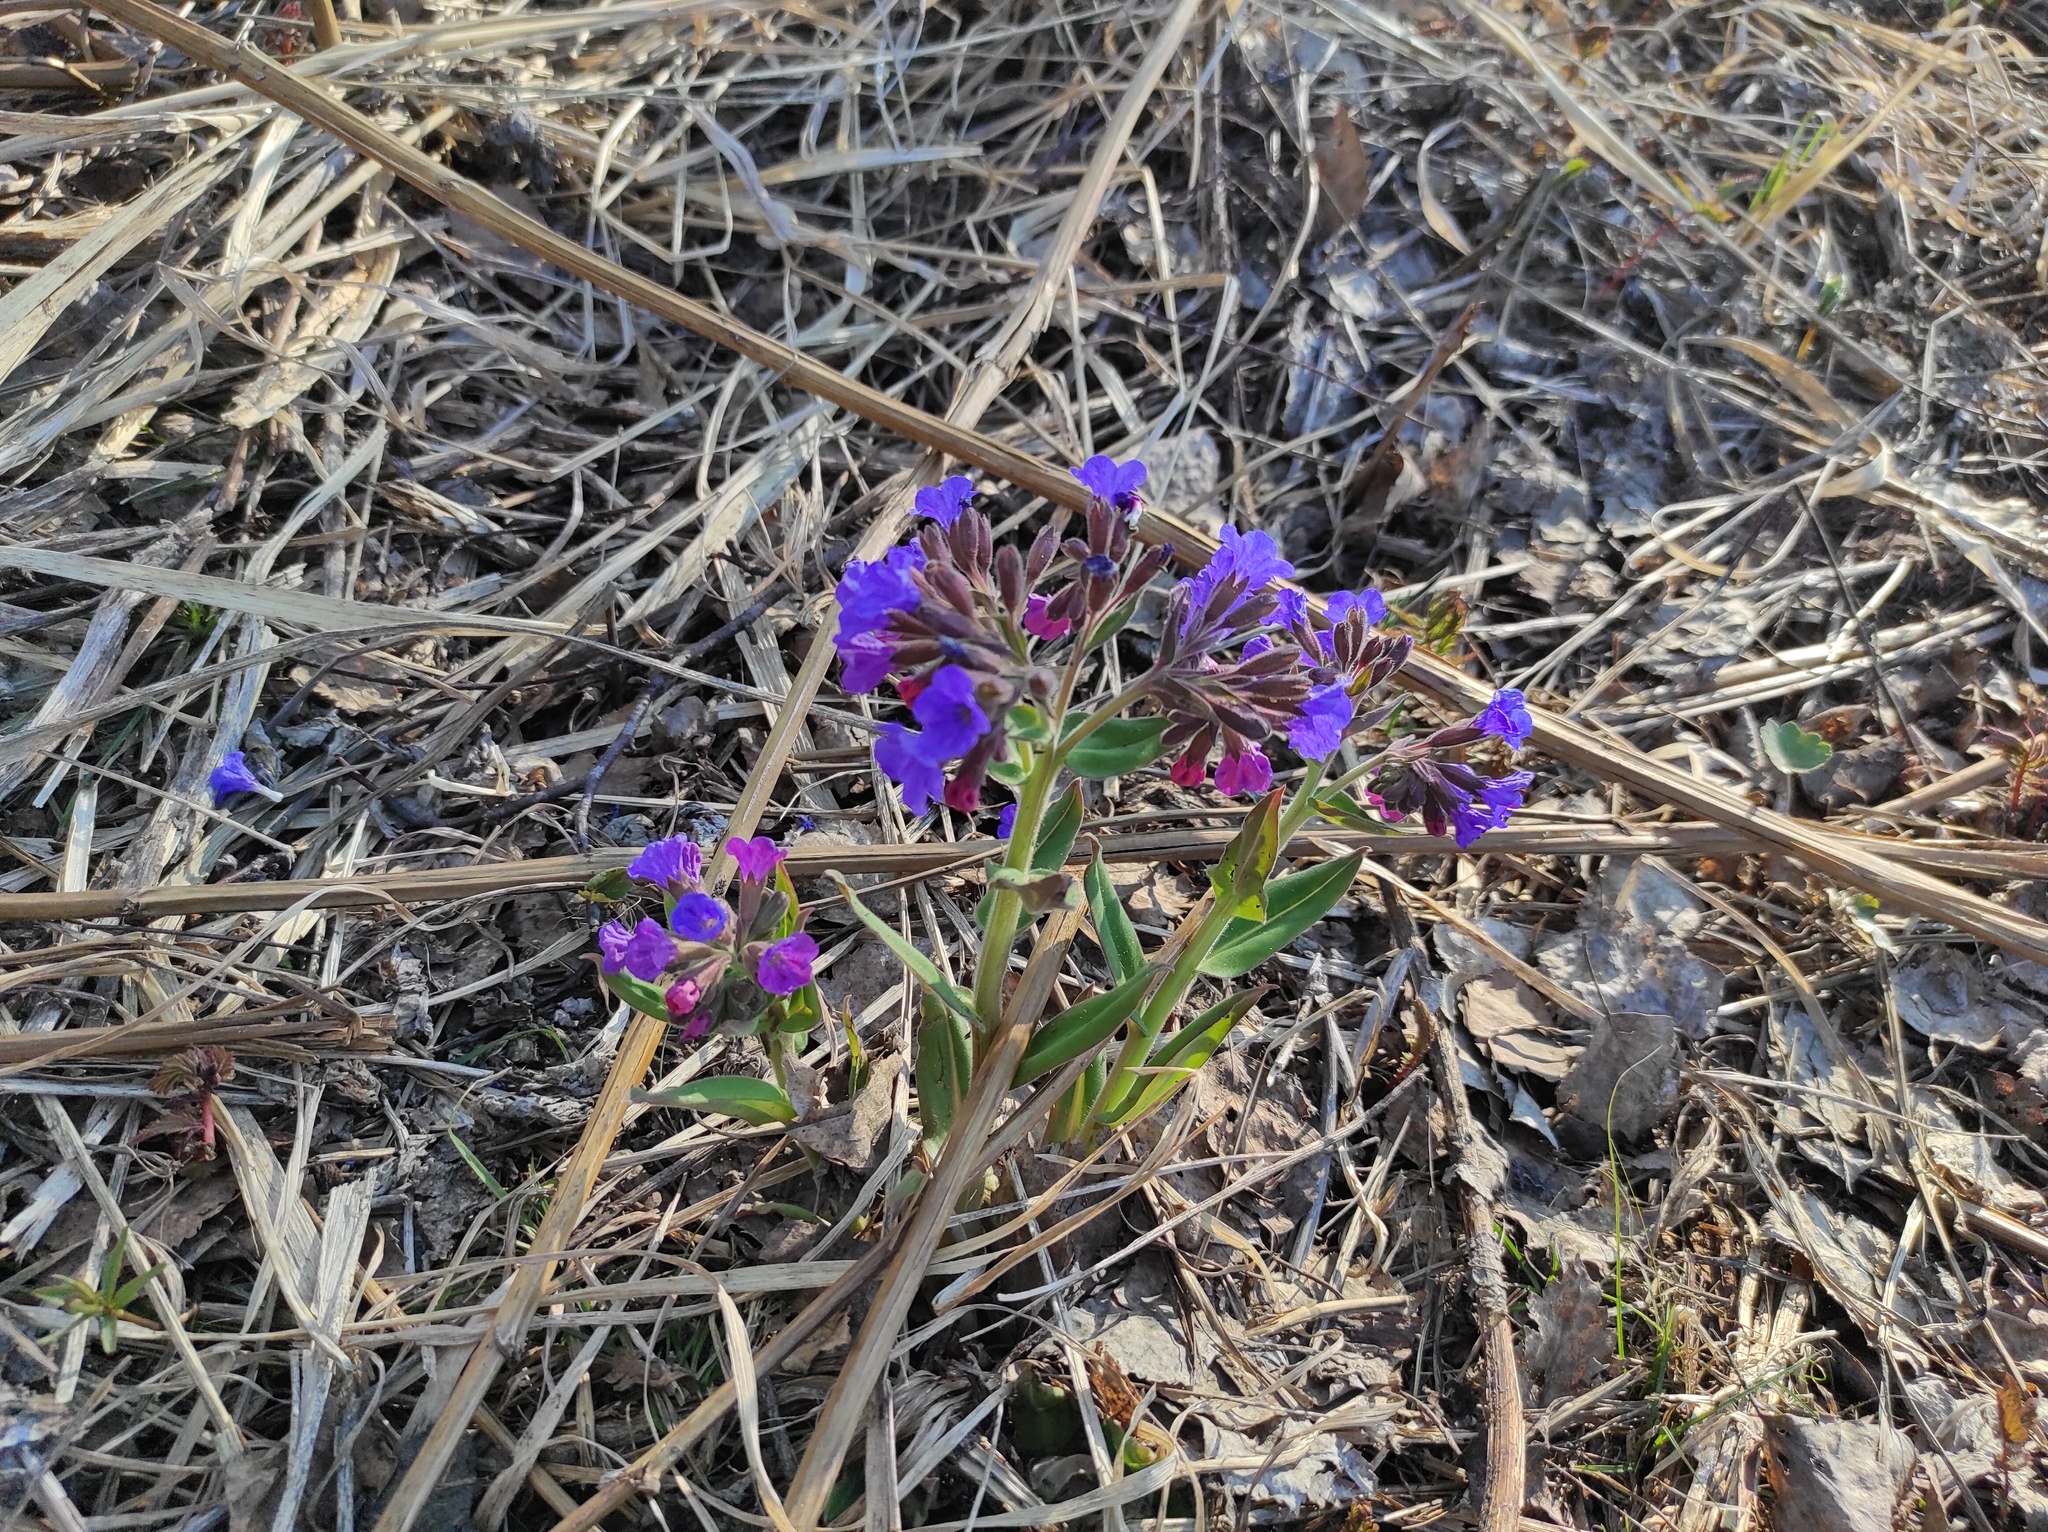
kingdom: Plantae
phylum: Tracheophyta
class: Magnoliopsida
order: Boraginales
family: Boraginaceae
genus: Pulmonaria
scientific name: Pulmonaria mollis
